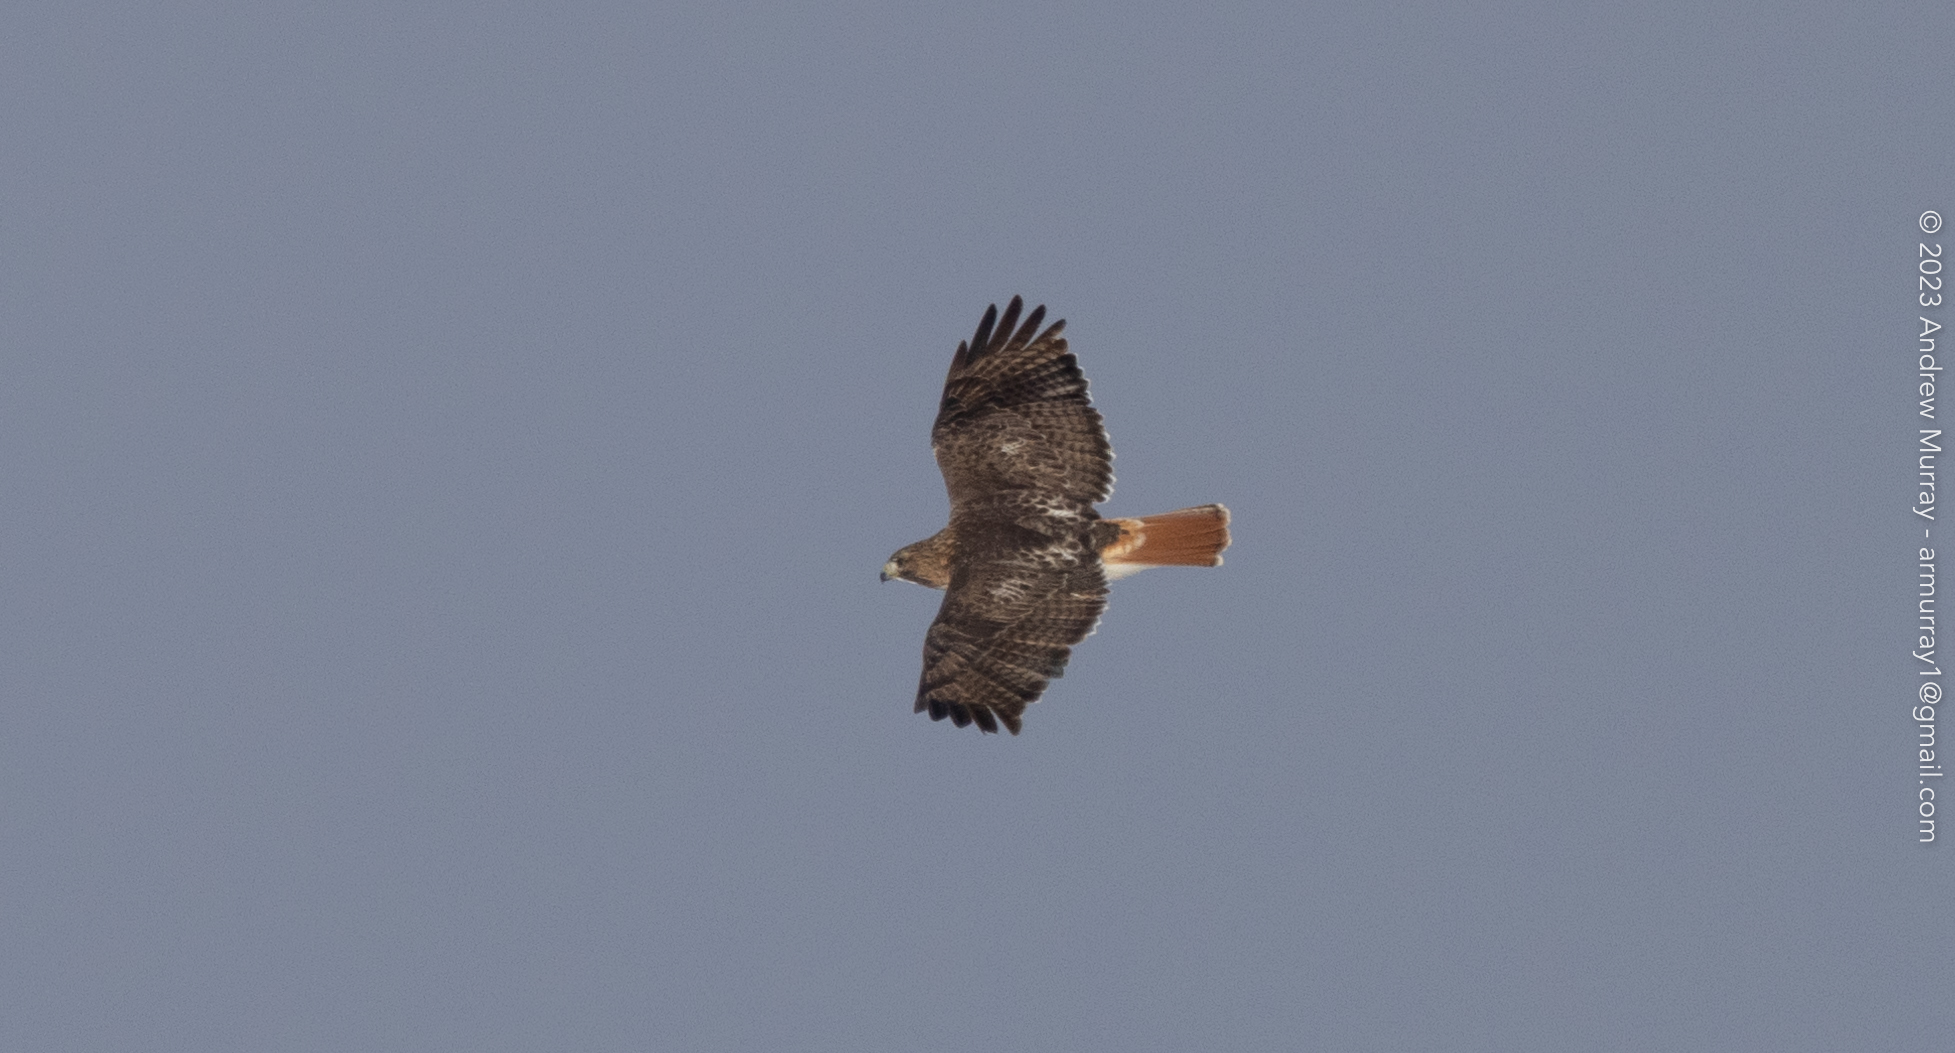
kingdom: Animalia
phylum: Chordata
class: Aves
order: Accipitriformes
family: Accipitridae
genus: Buteo
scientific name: Buteo jamaicensis
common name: Red-tailed hawk
